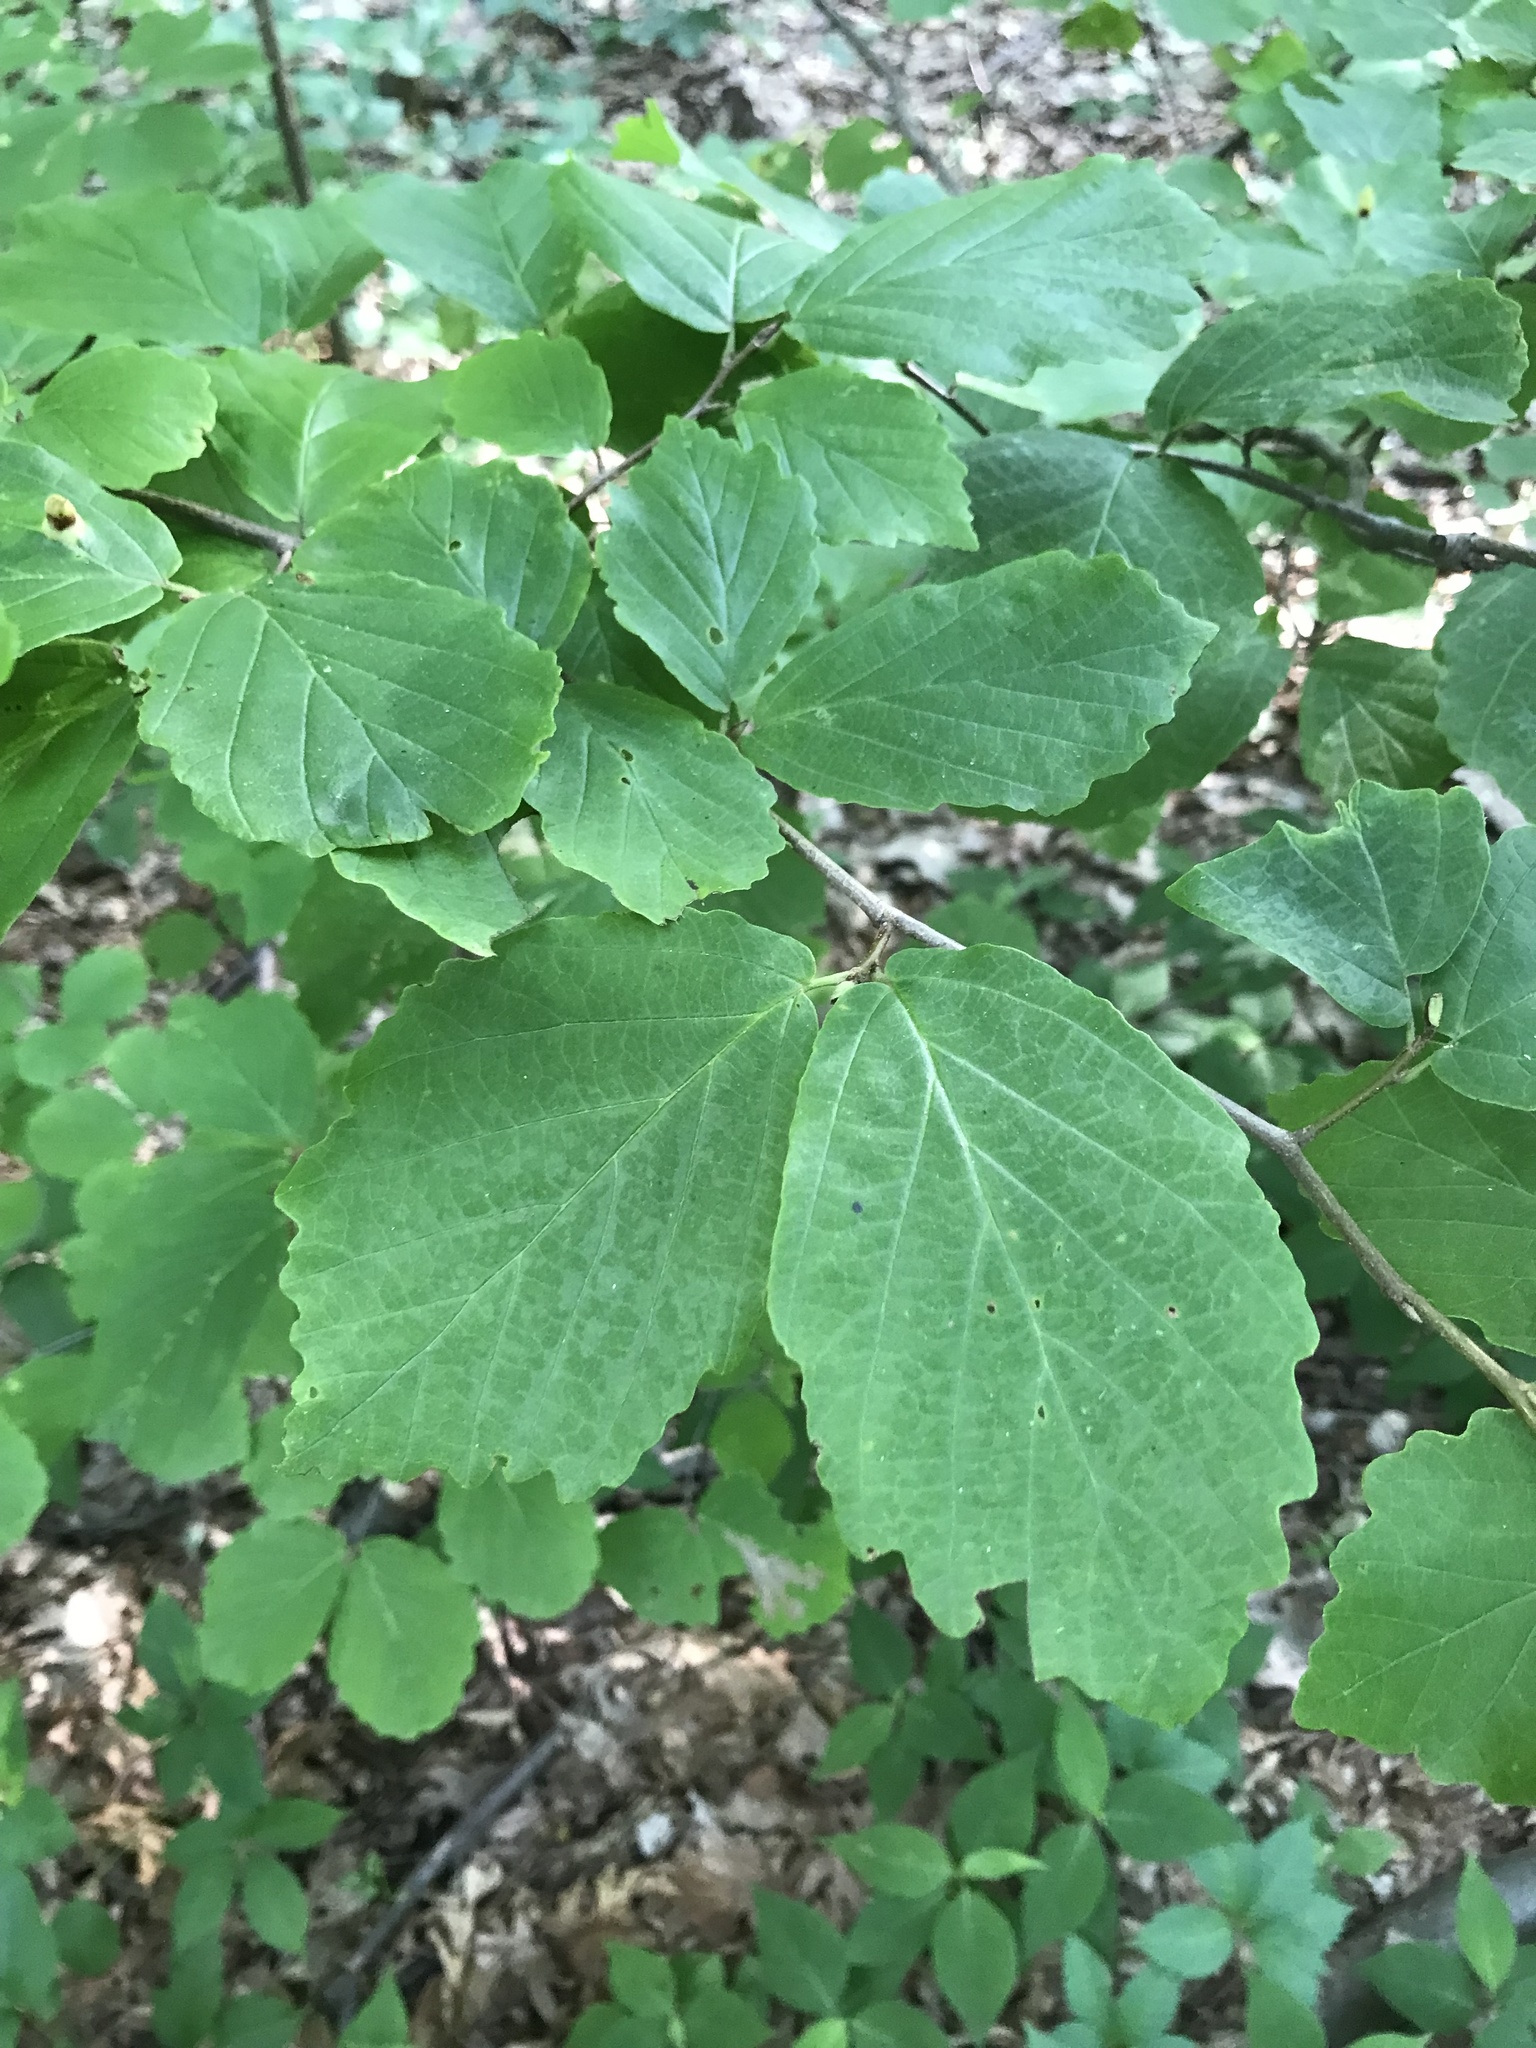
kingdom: Plantae
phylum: Tracheophyta
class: Magnoliopsida
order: Saxifragales
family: Hamamelidaceae
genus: Hamamelis
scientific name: Hamamelis virginiana
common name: Witch-hazel
